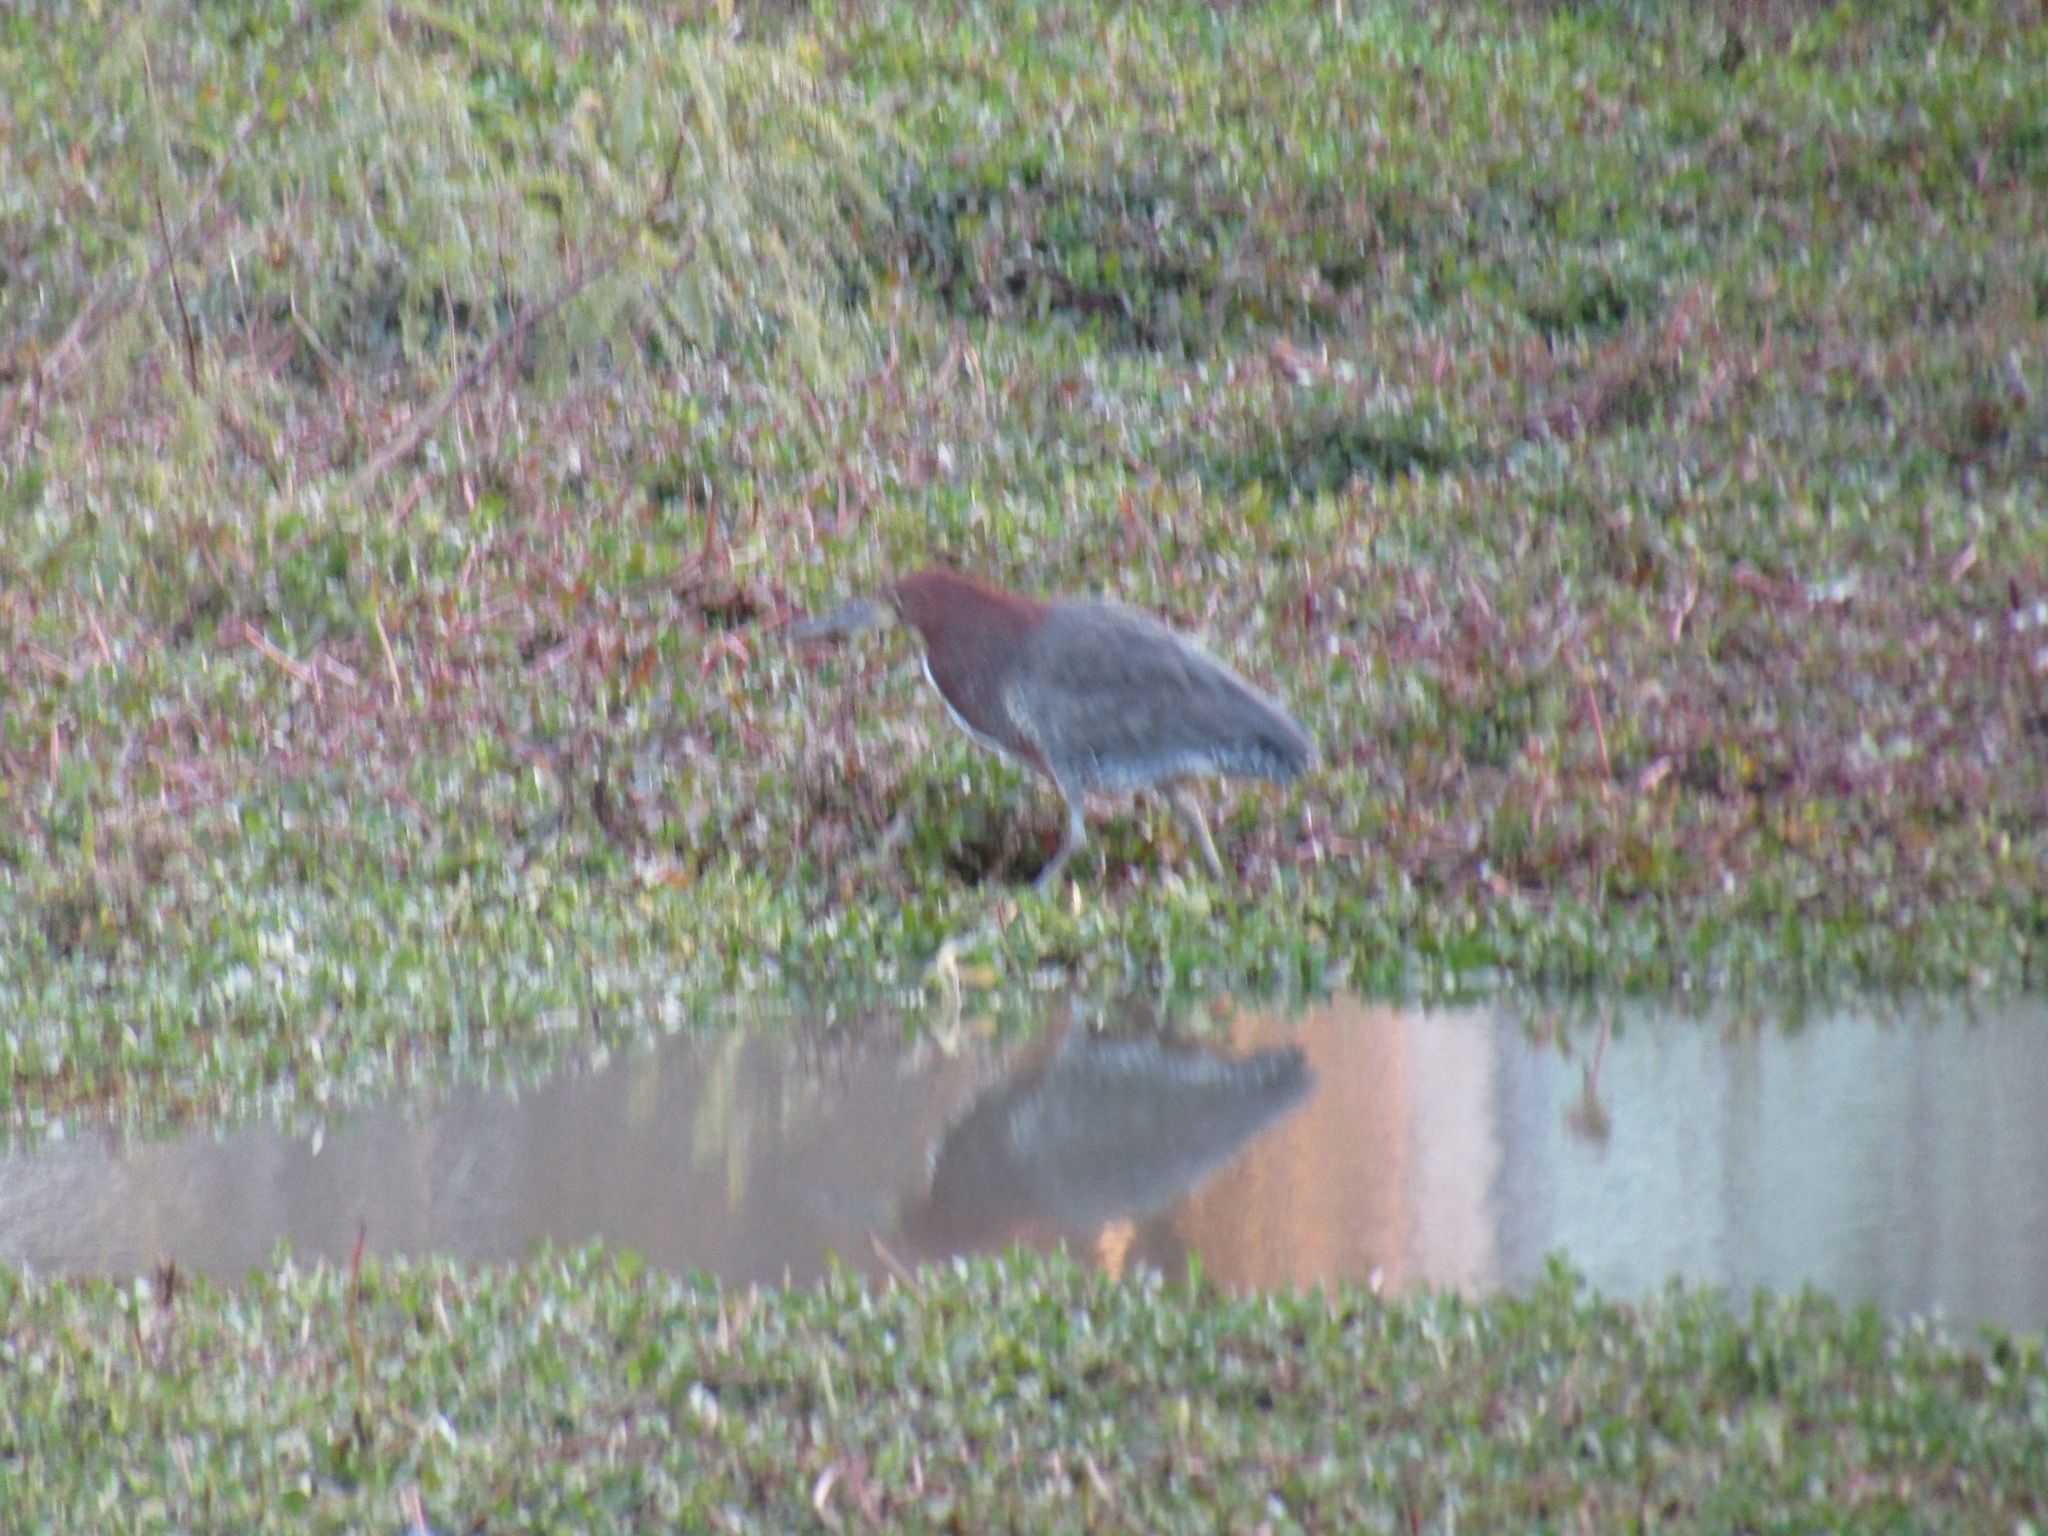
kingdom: Animalia
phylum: Chordata
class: Aves
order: Pelecaniformes
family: Ardeidae
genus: Tigrisoma
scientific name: Tigrisoma lineatum
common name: Rufescent tiger-heron
